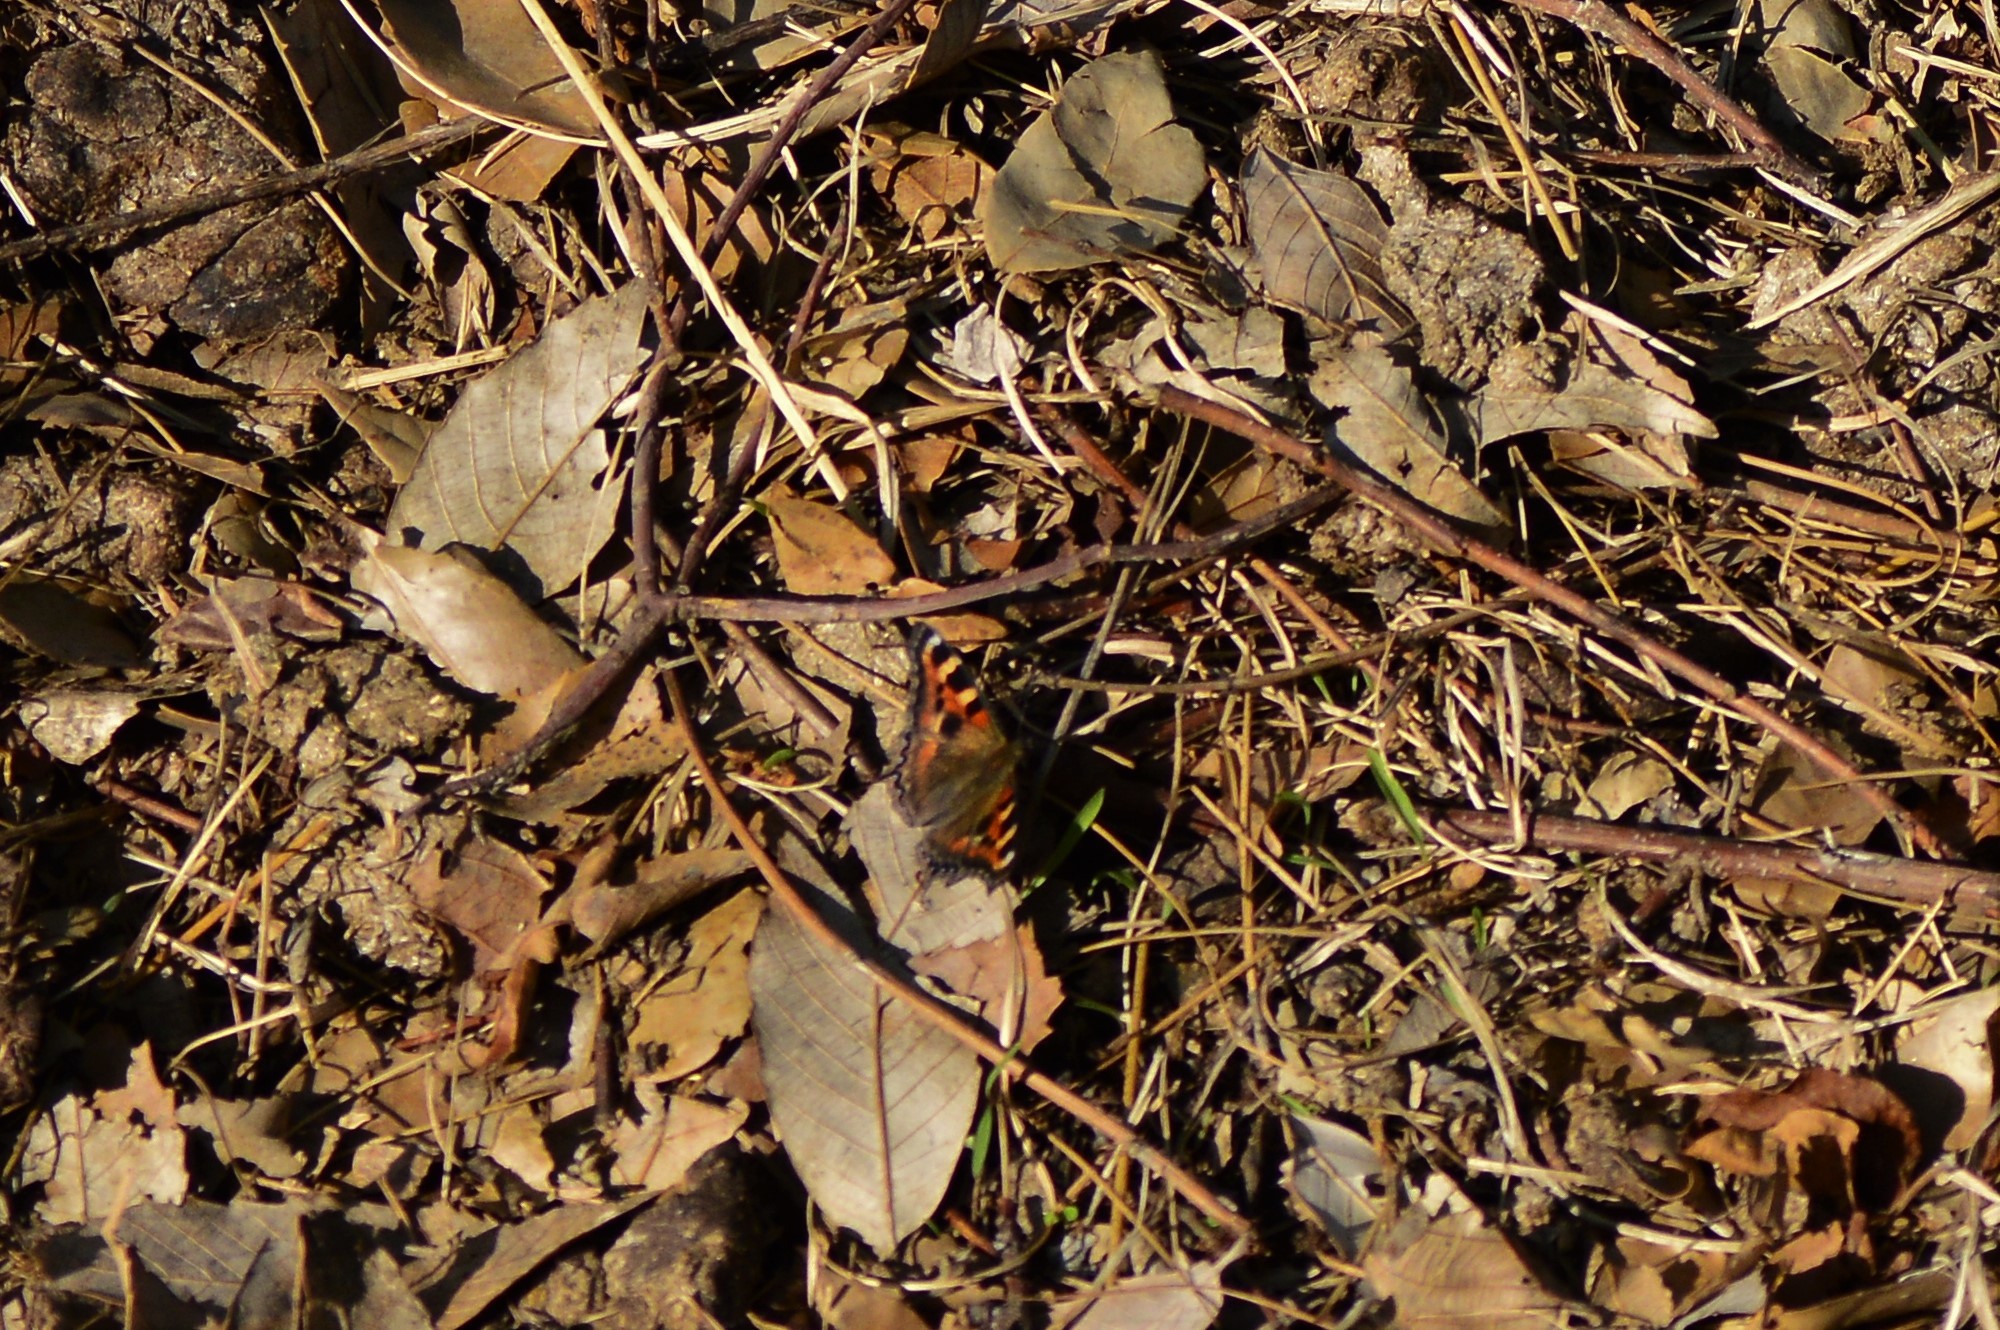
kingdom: Animalia
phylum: Arthropoda
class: Insecta
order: Lepidoptera
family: Nymphalidae
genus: Aglais
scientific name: Aglais caschmirensis
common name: Indian tortoiseshell
